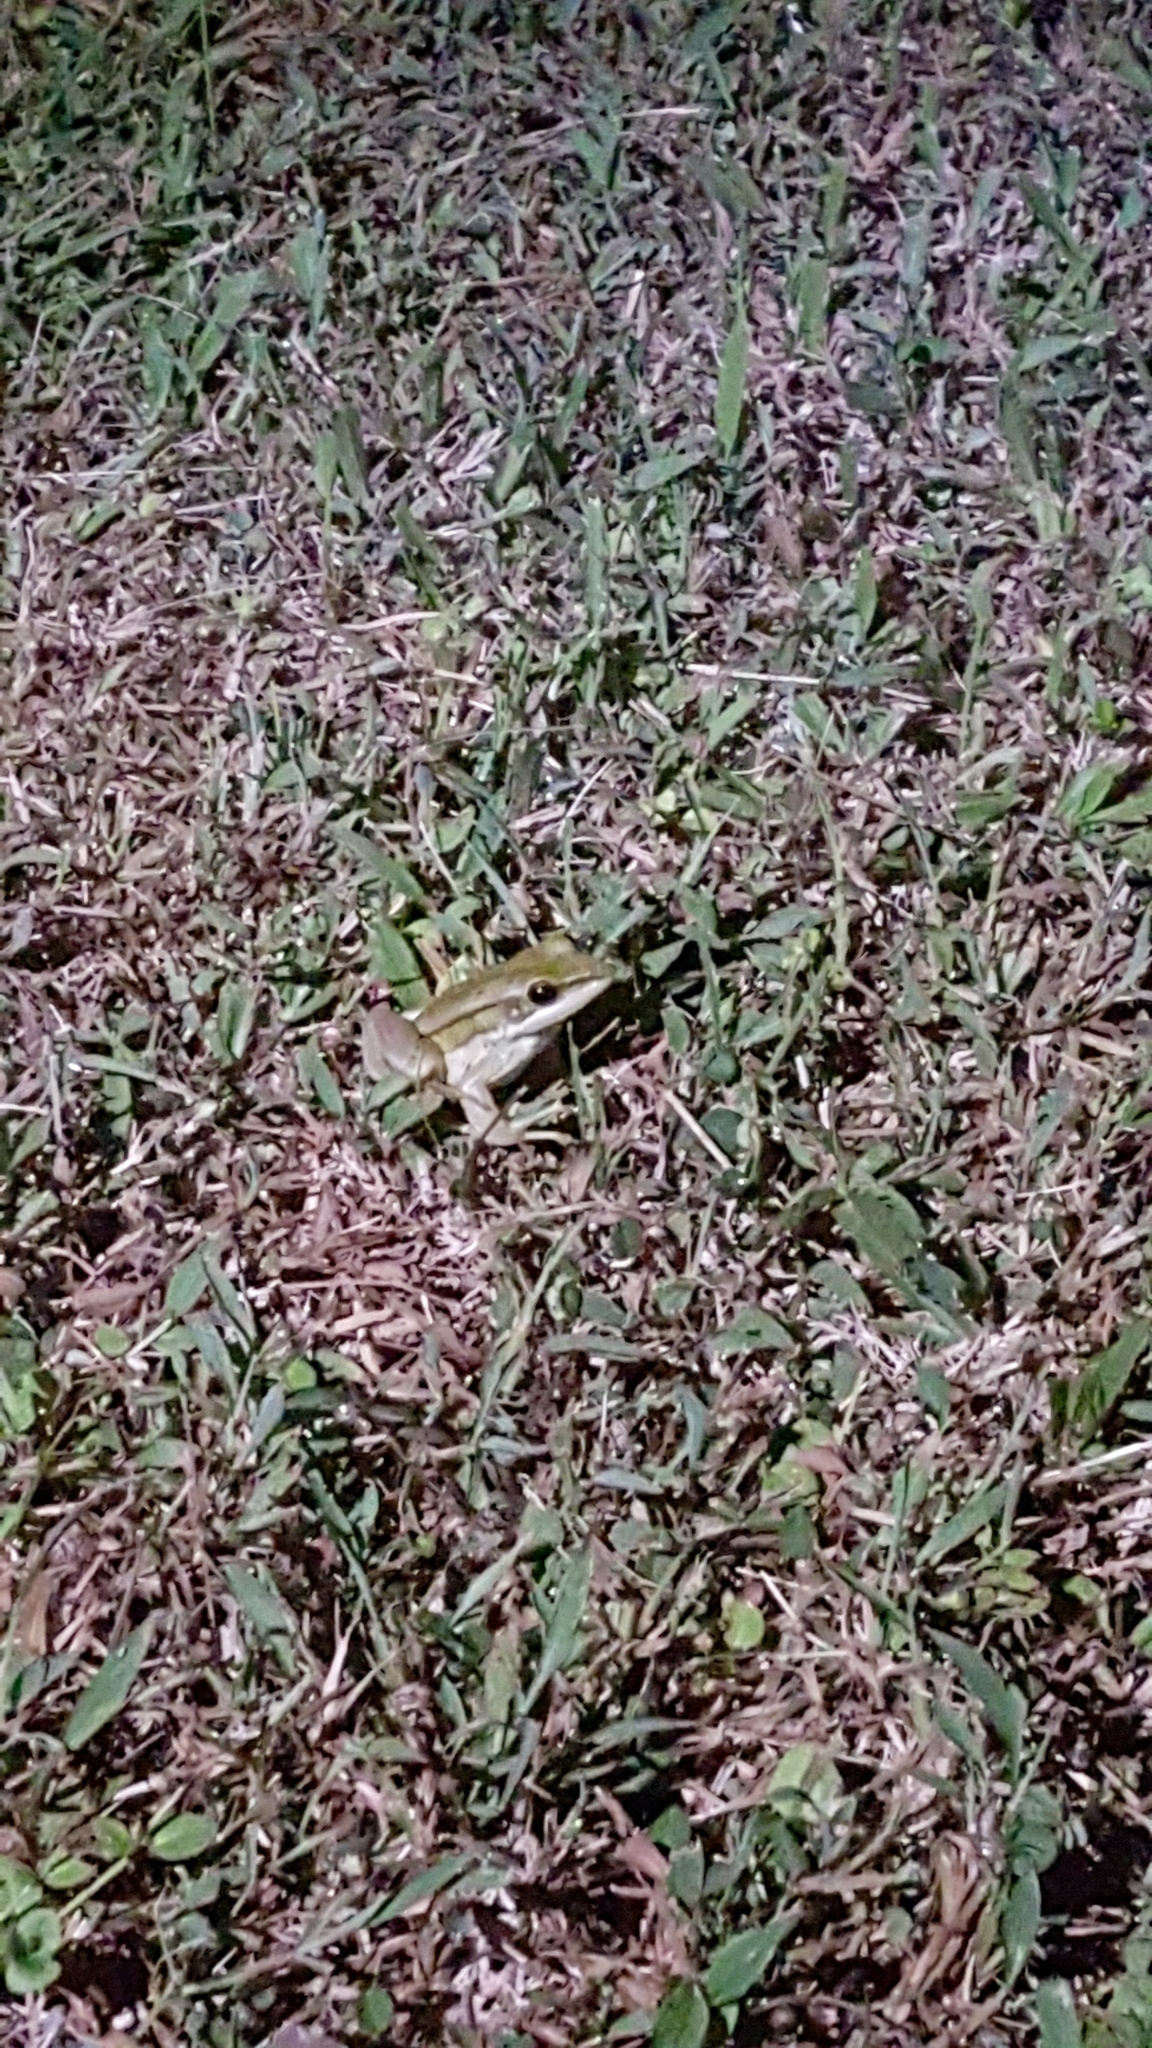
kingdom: Animalia
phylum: Chordata
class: Amphibia
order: Anura
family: Ranidae
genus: Hylarana
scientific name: Hylarana erythraea
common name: Common green frog/green paddy frog/leaf frog
